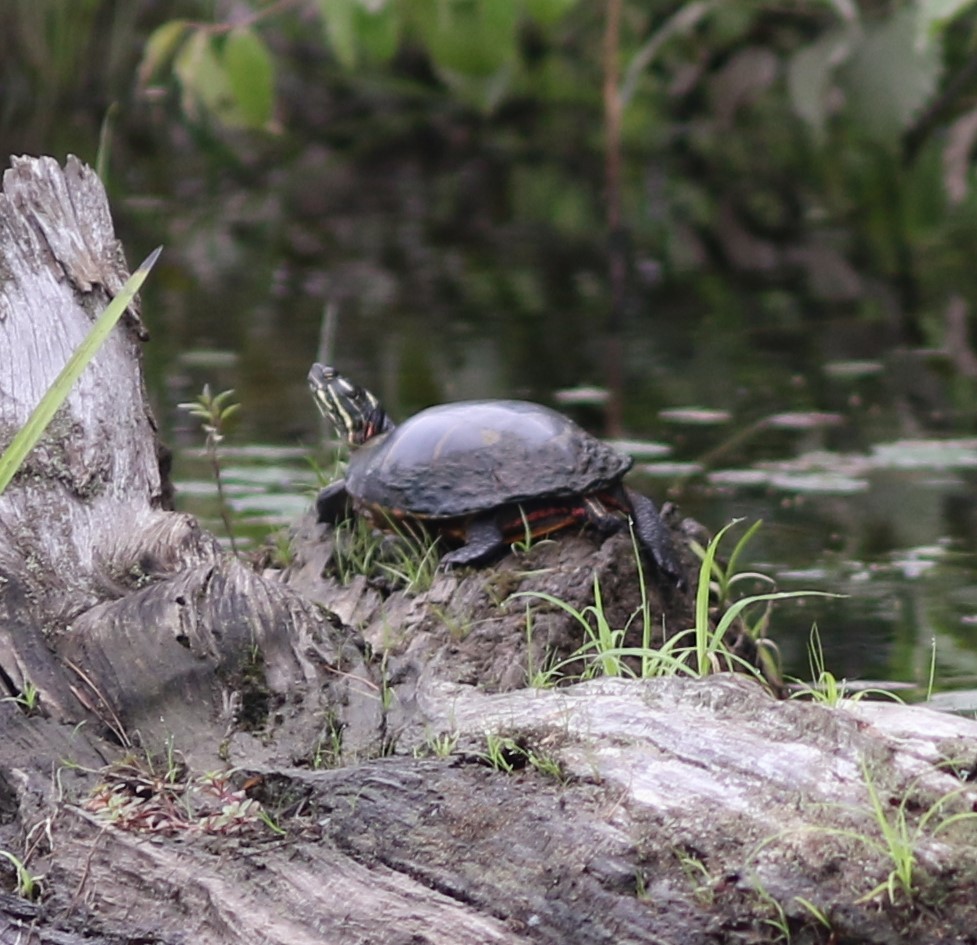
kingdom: Animalia
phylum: Chordata
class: Testudines
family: Emydidae
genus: Chrysemys
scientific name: Chrysemys picta
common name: Painted turtle
